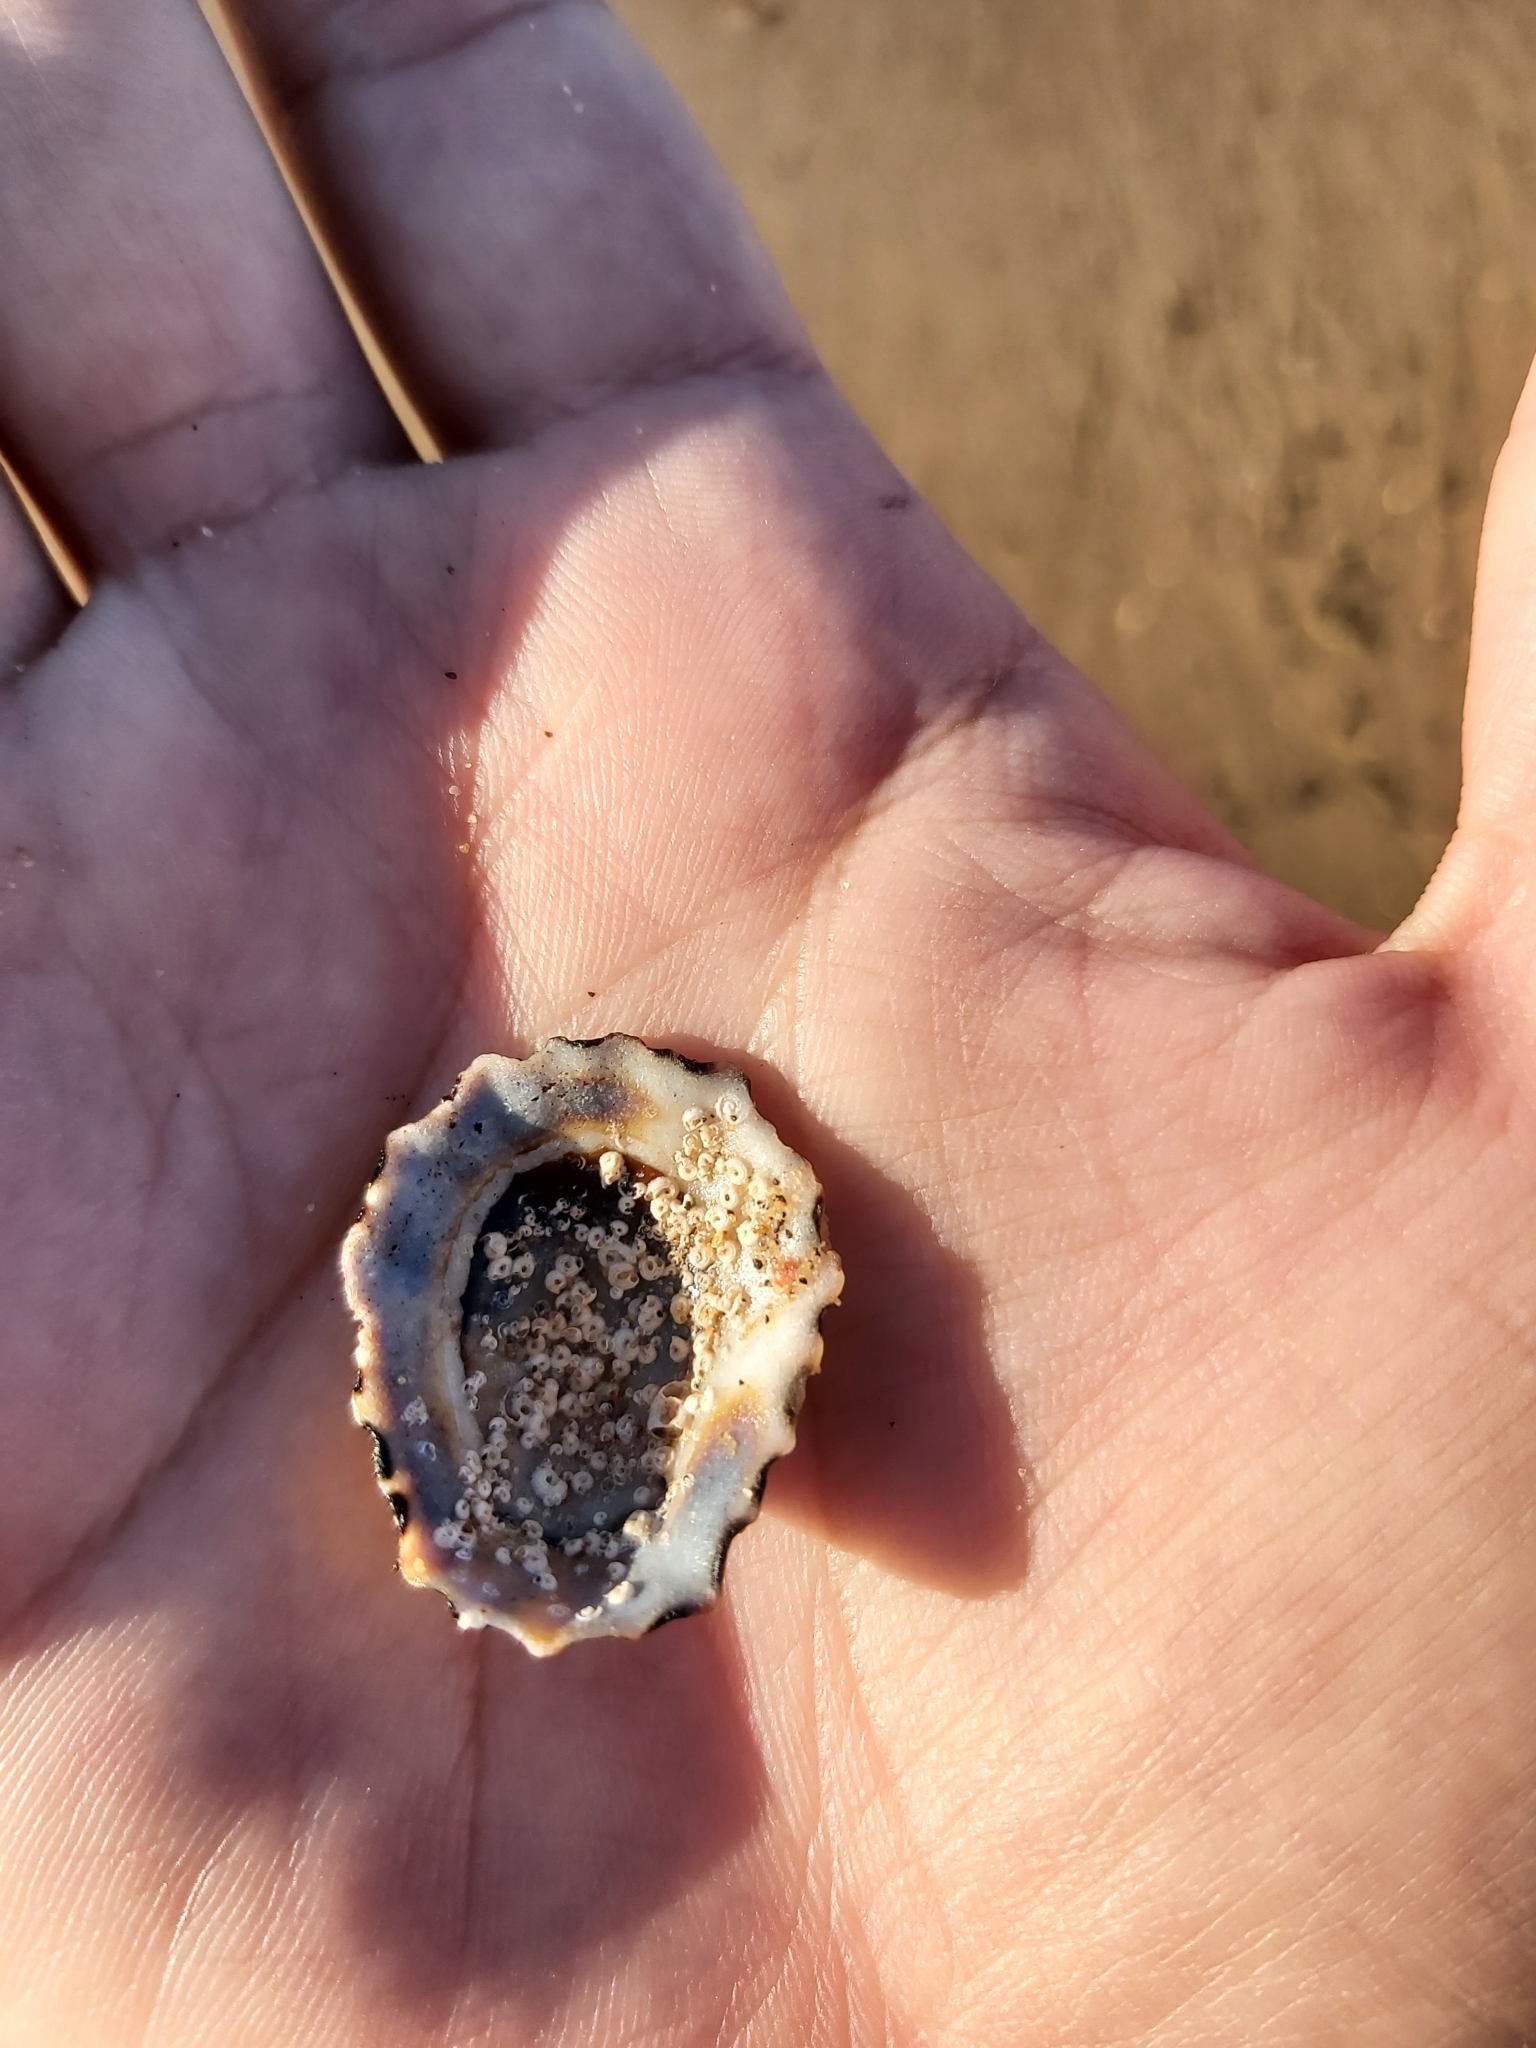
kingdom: Animalia
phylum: Mollusca
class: Gastropoda
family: Lottiidae
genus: Patelloida
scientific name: Patelloida alticostata
